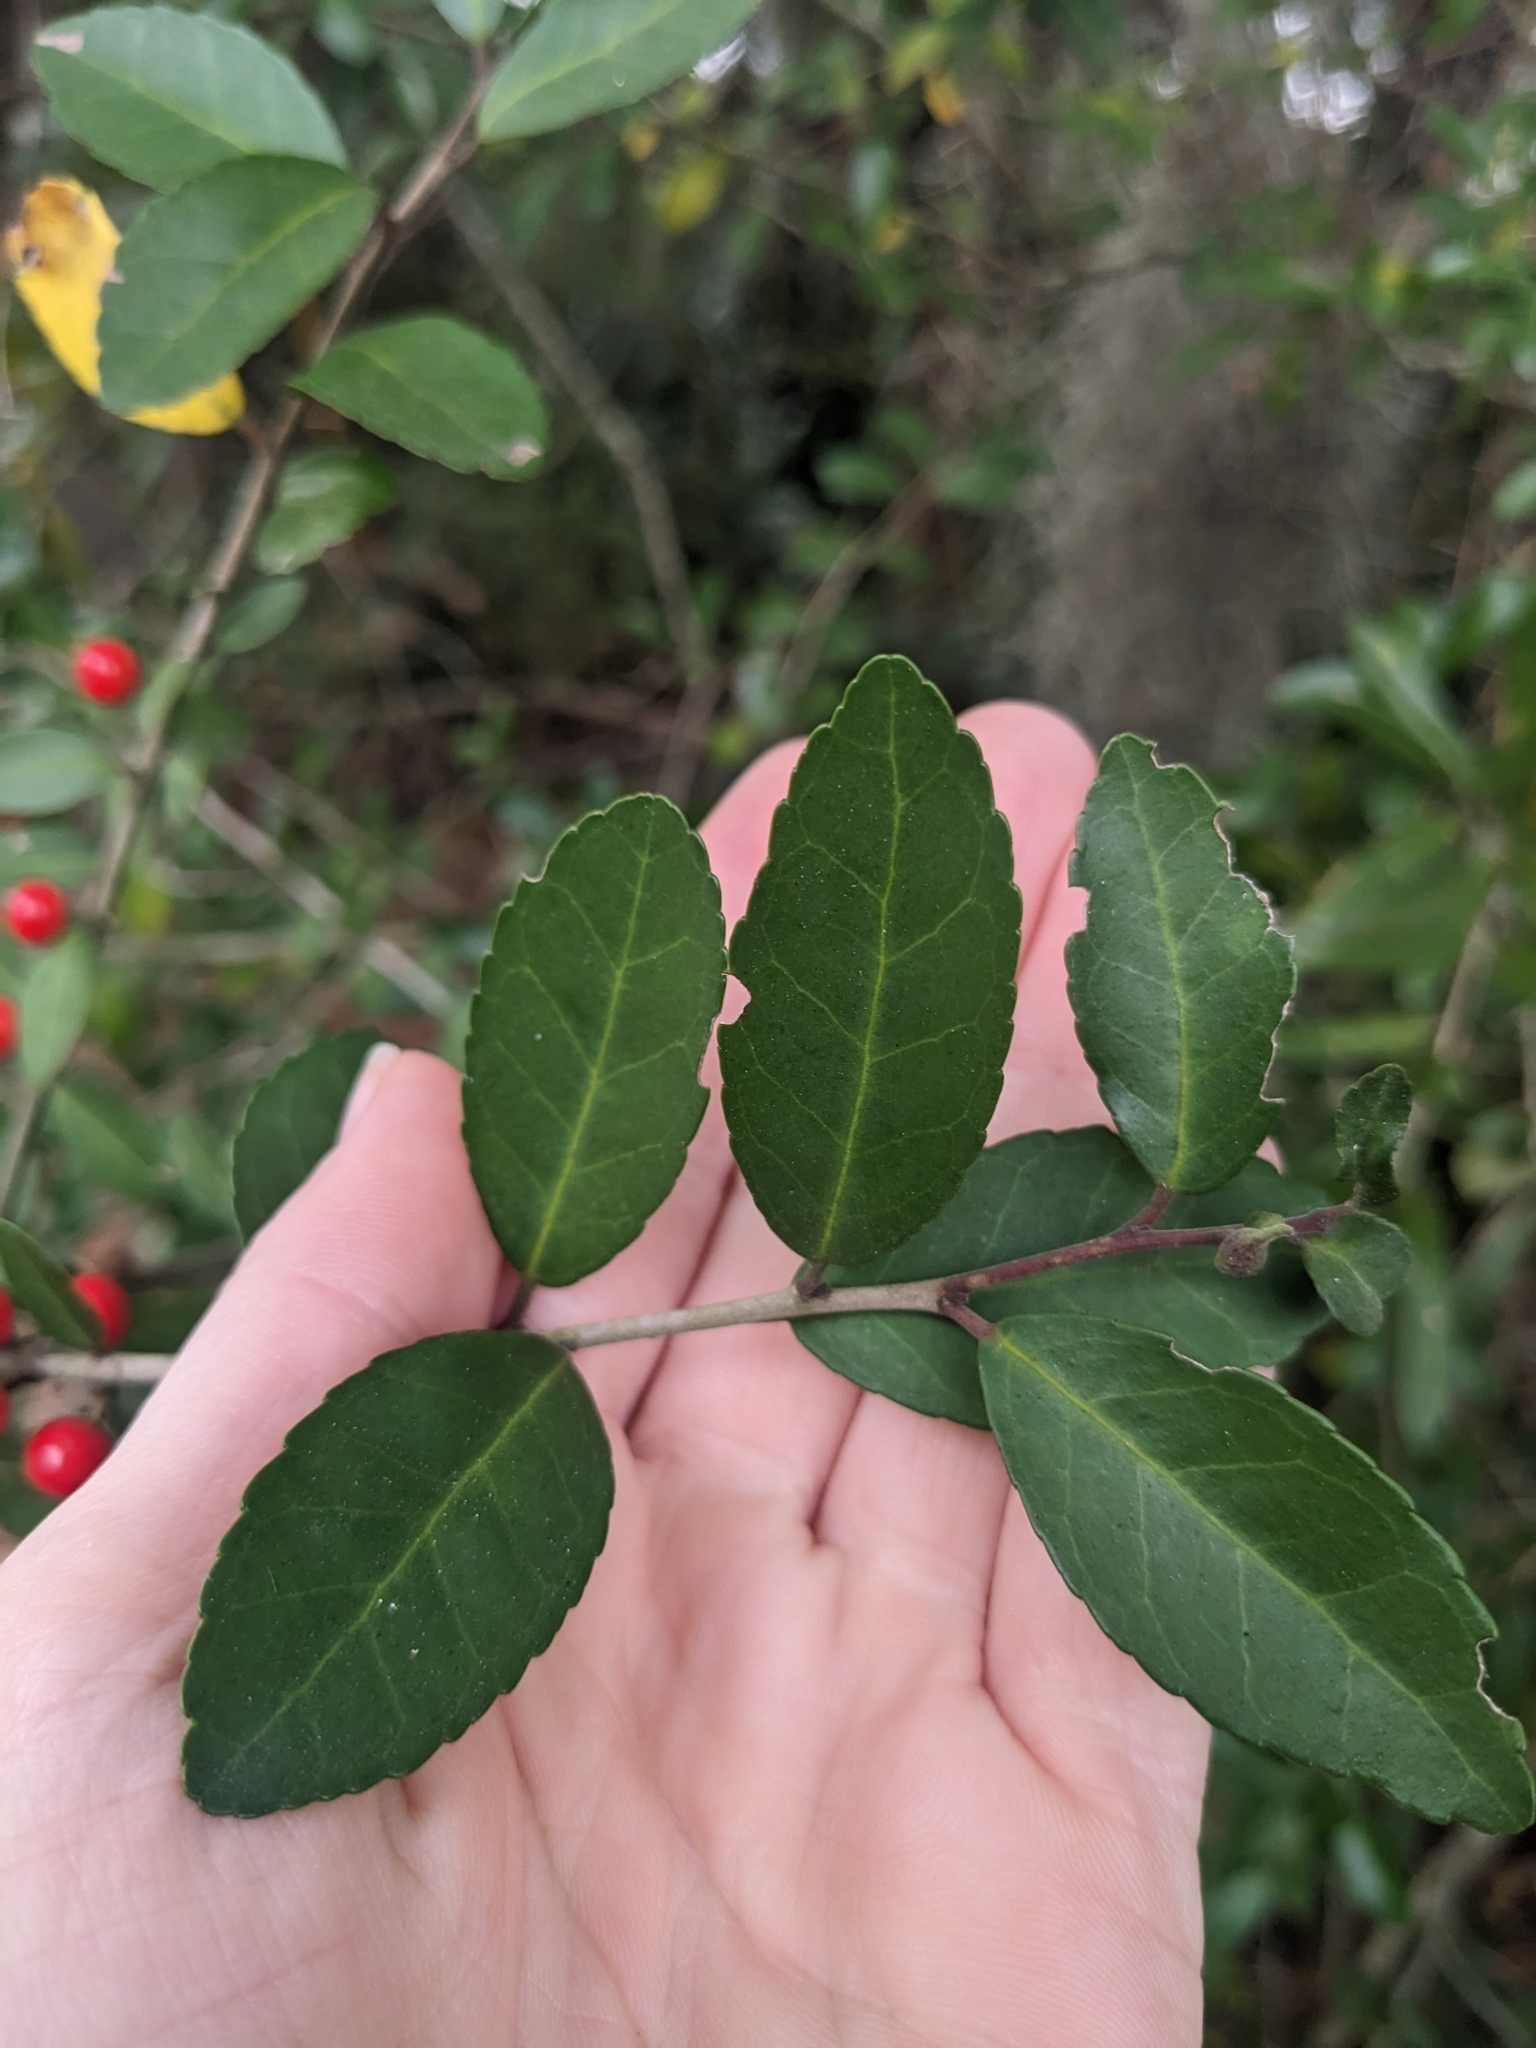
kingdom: Plantae
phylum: Tracheophyta
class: Magnoliopsida
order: Aquifoliales
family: Aquifoliaceae
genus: Ilex
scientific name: Ilex vomitoria
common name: Yaupon holly
